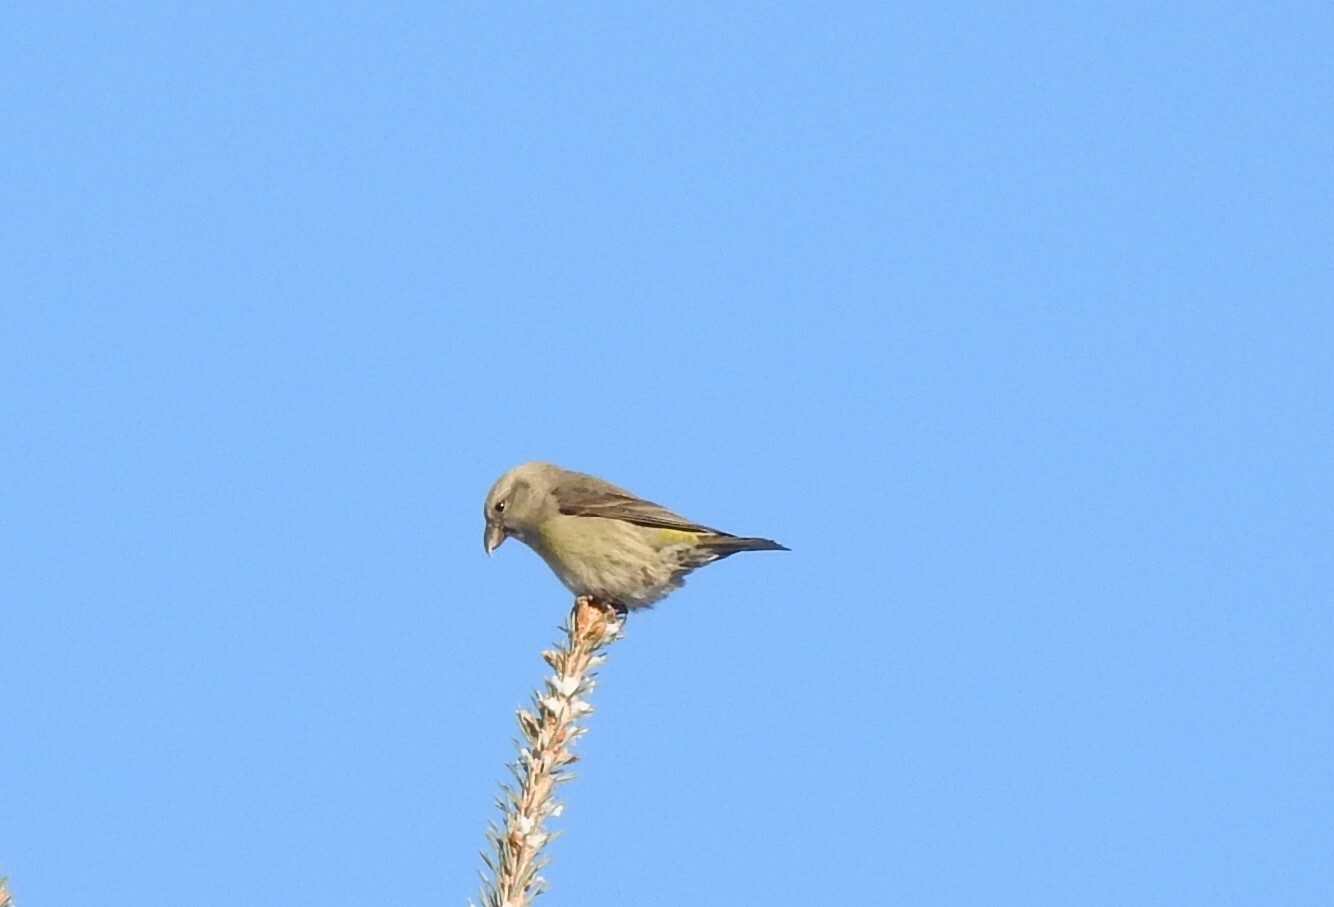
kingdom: Animalia
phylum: Chordata
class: Aves
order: Passeriformes
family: Fringillidae
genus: Loxia
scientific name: Loxia curvirostra
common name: Red crossbill
